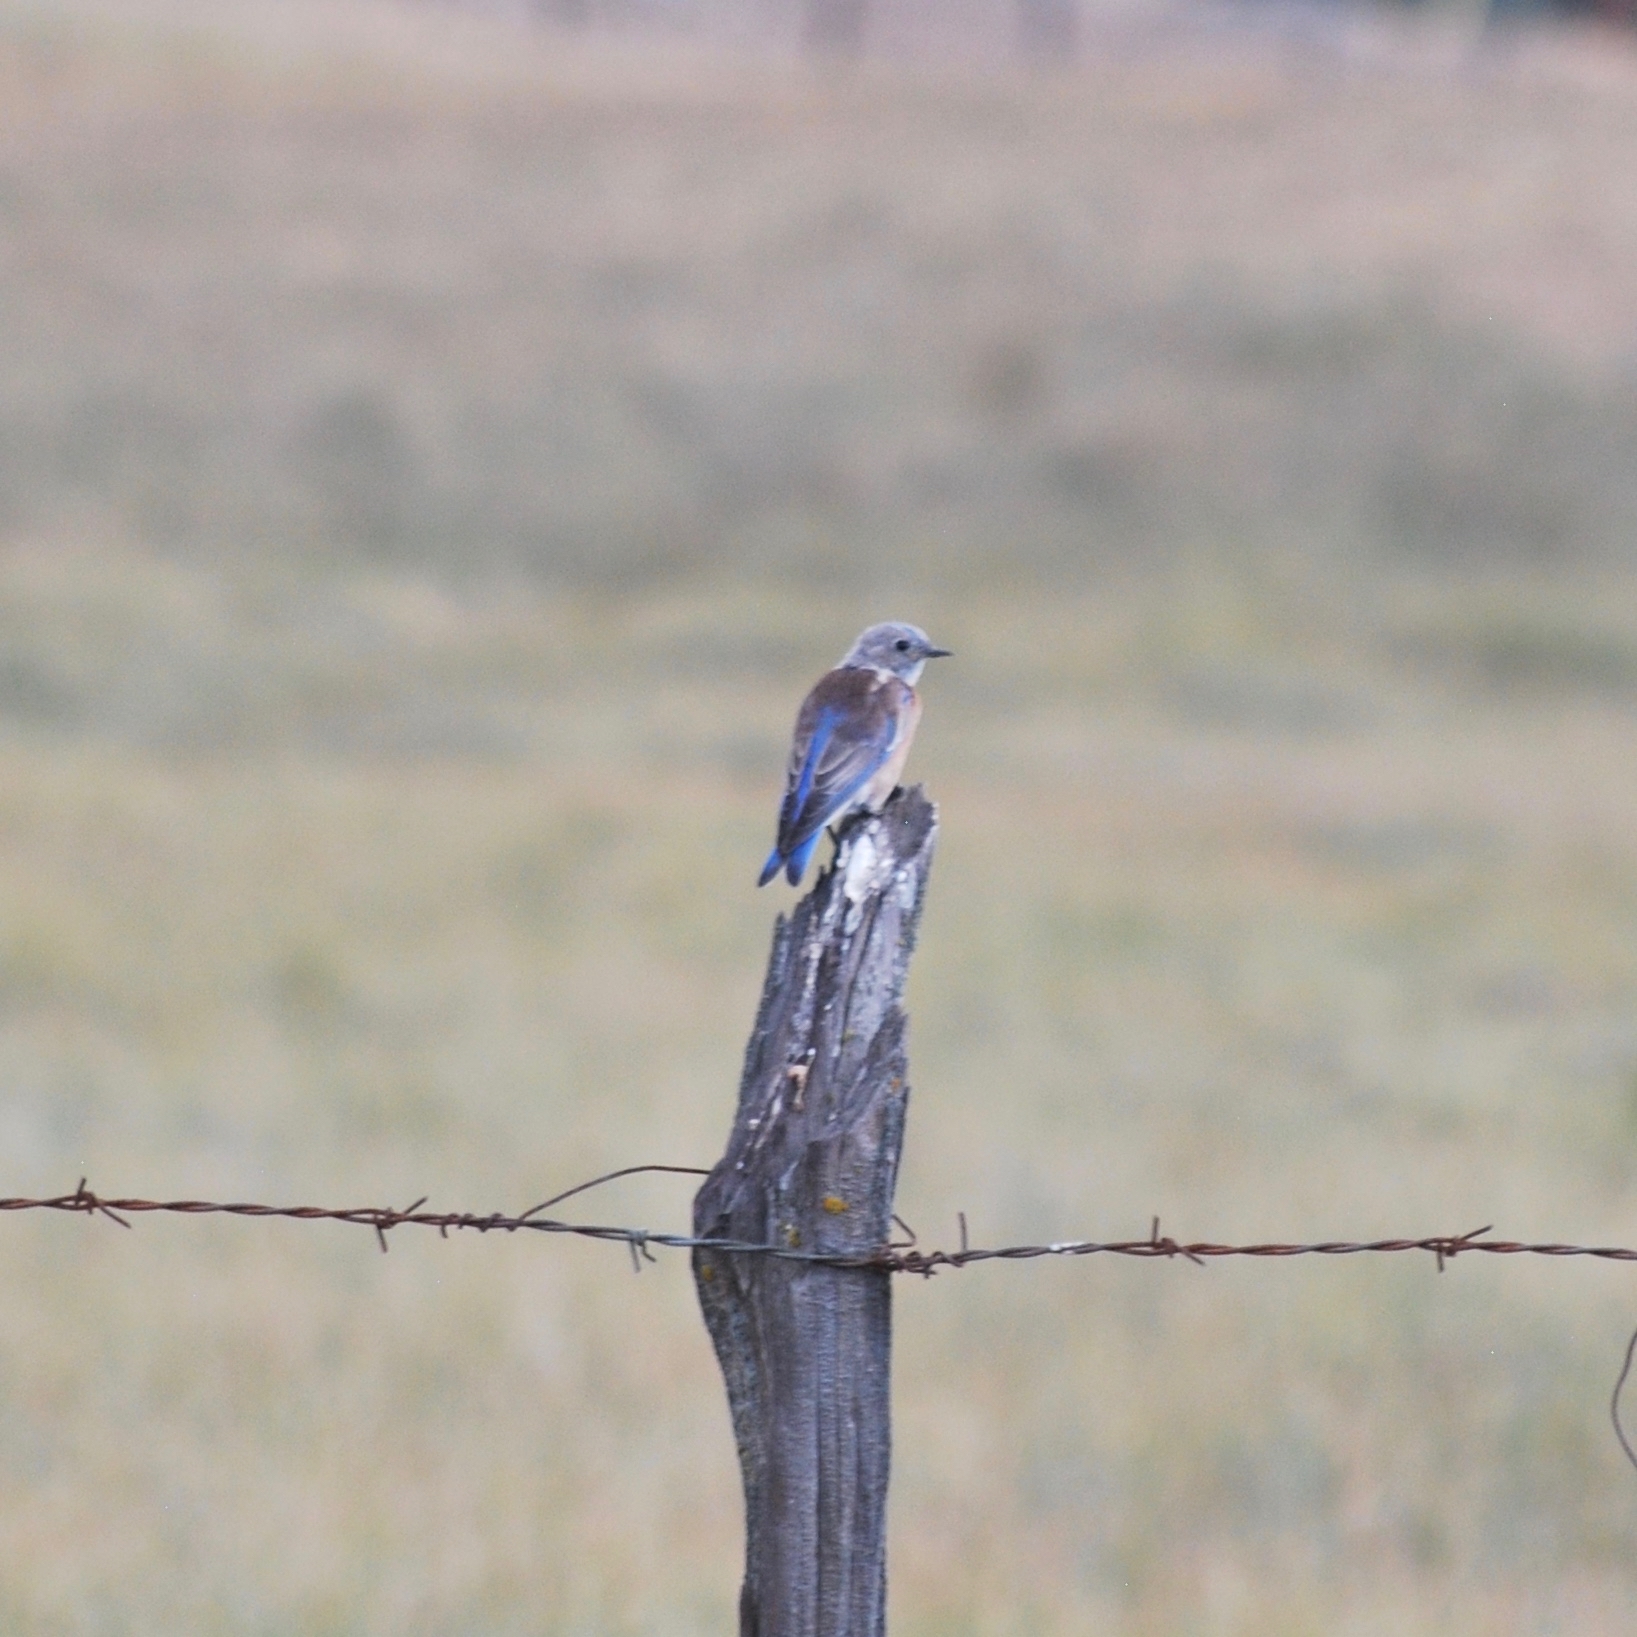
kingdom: Animalia
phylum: Chordata
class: Aves
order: Passeriformes
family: Turdidae
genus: Sialia
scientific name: Sialia mexicana
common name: Western bluebird
